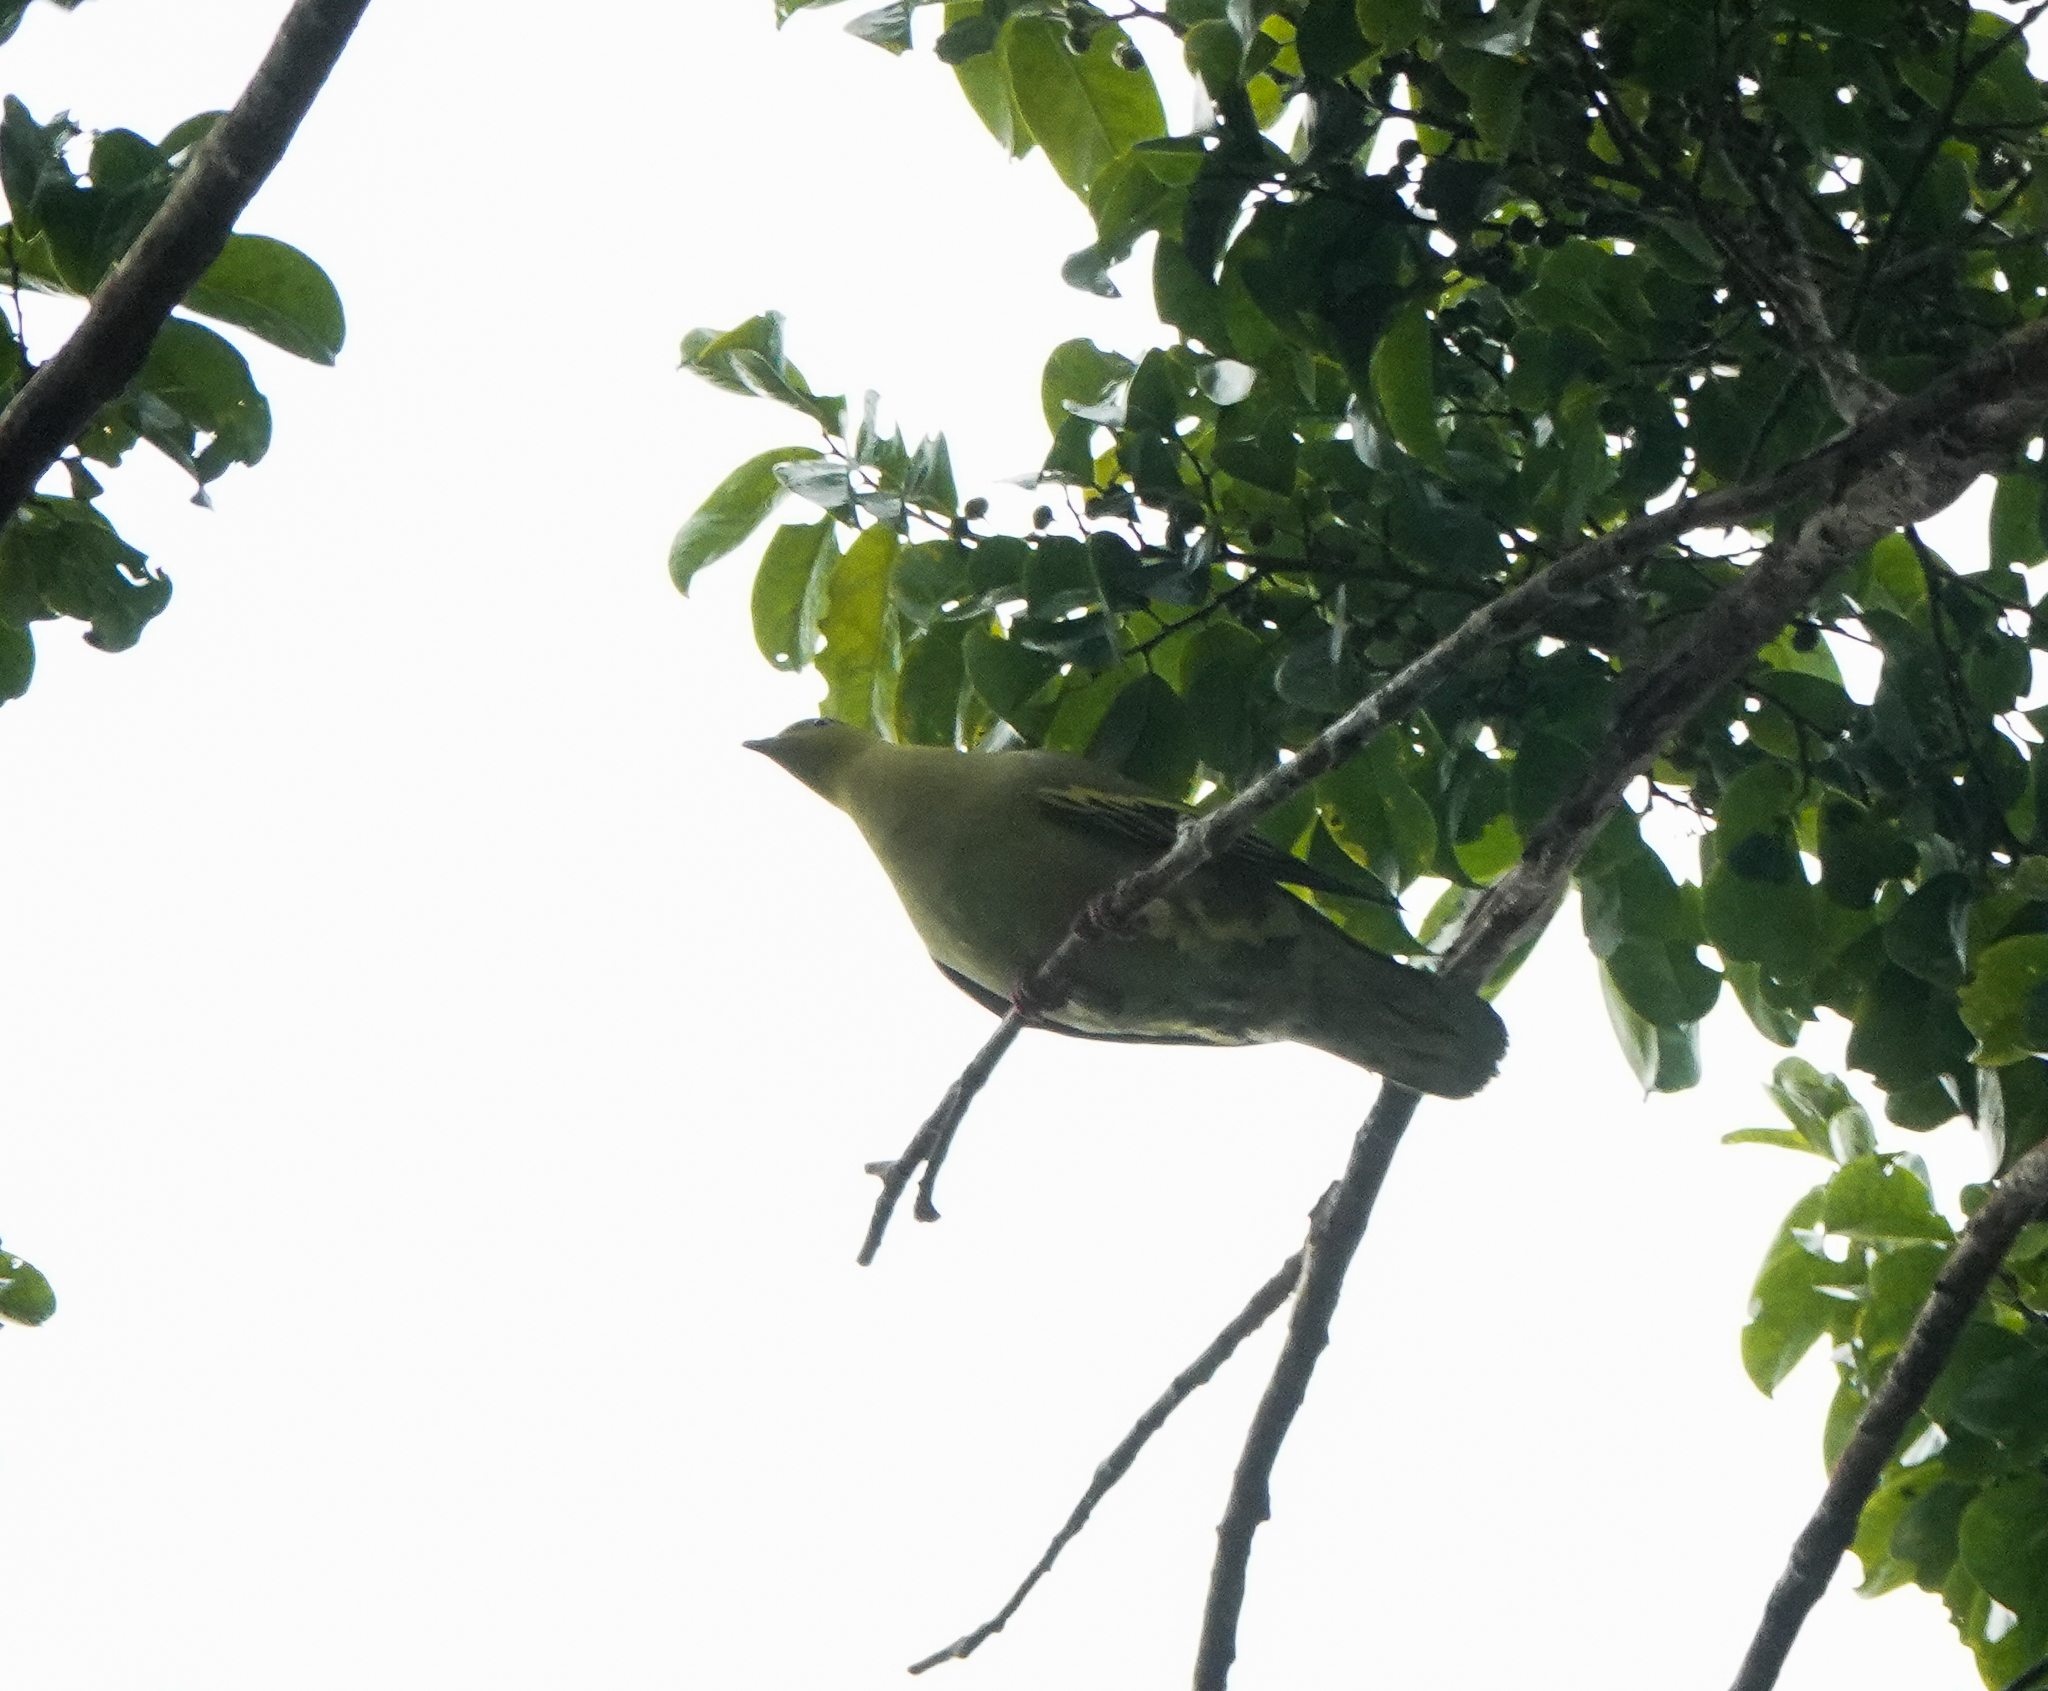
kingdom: Animalia
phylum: Chordata
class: Aves
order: Columbiformes
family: Columbidae
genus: Treron
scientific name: Treron phayrei
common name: Ashy-headed green pigeon
